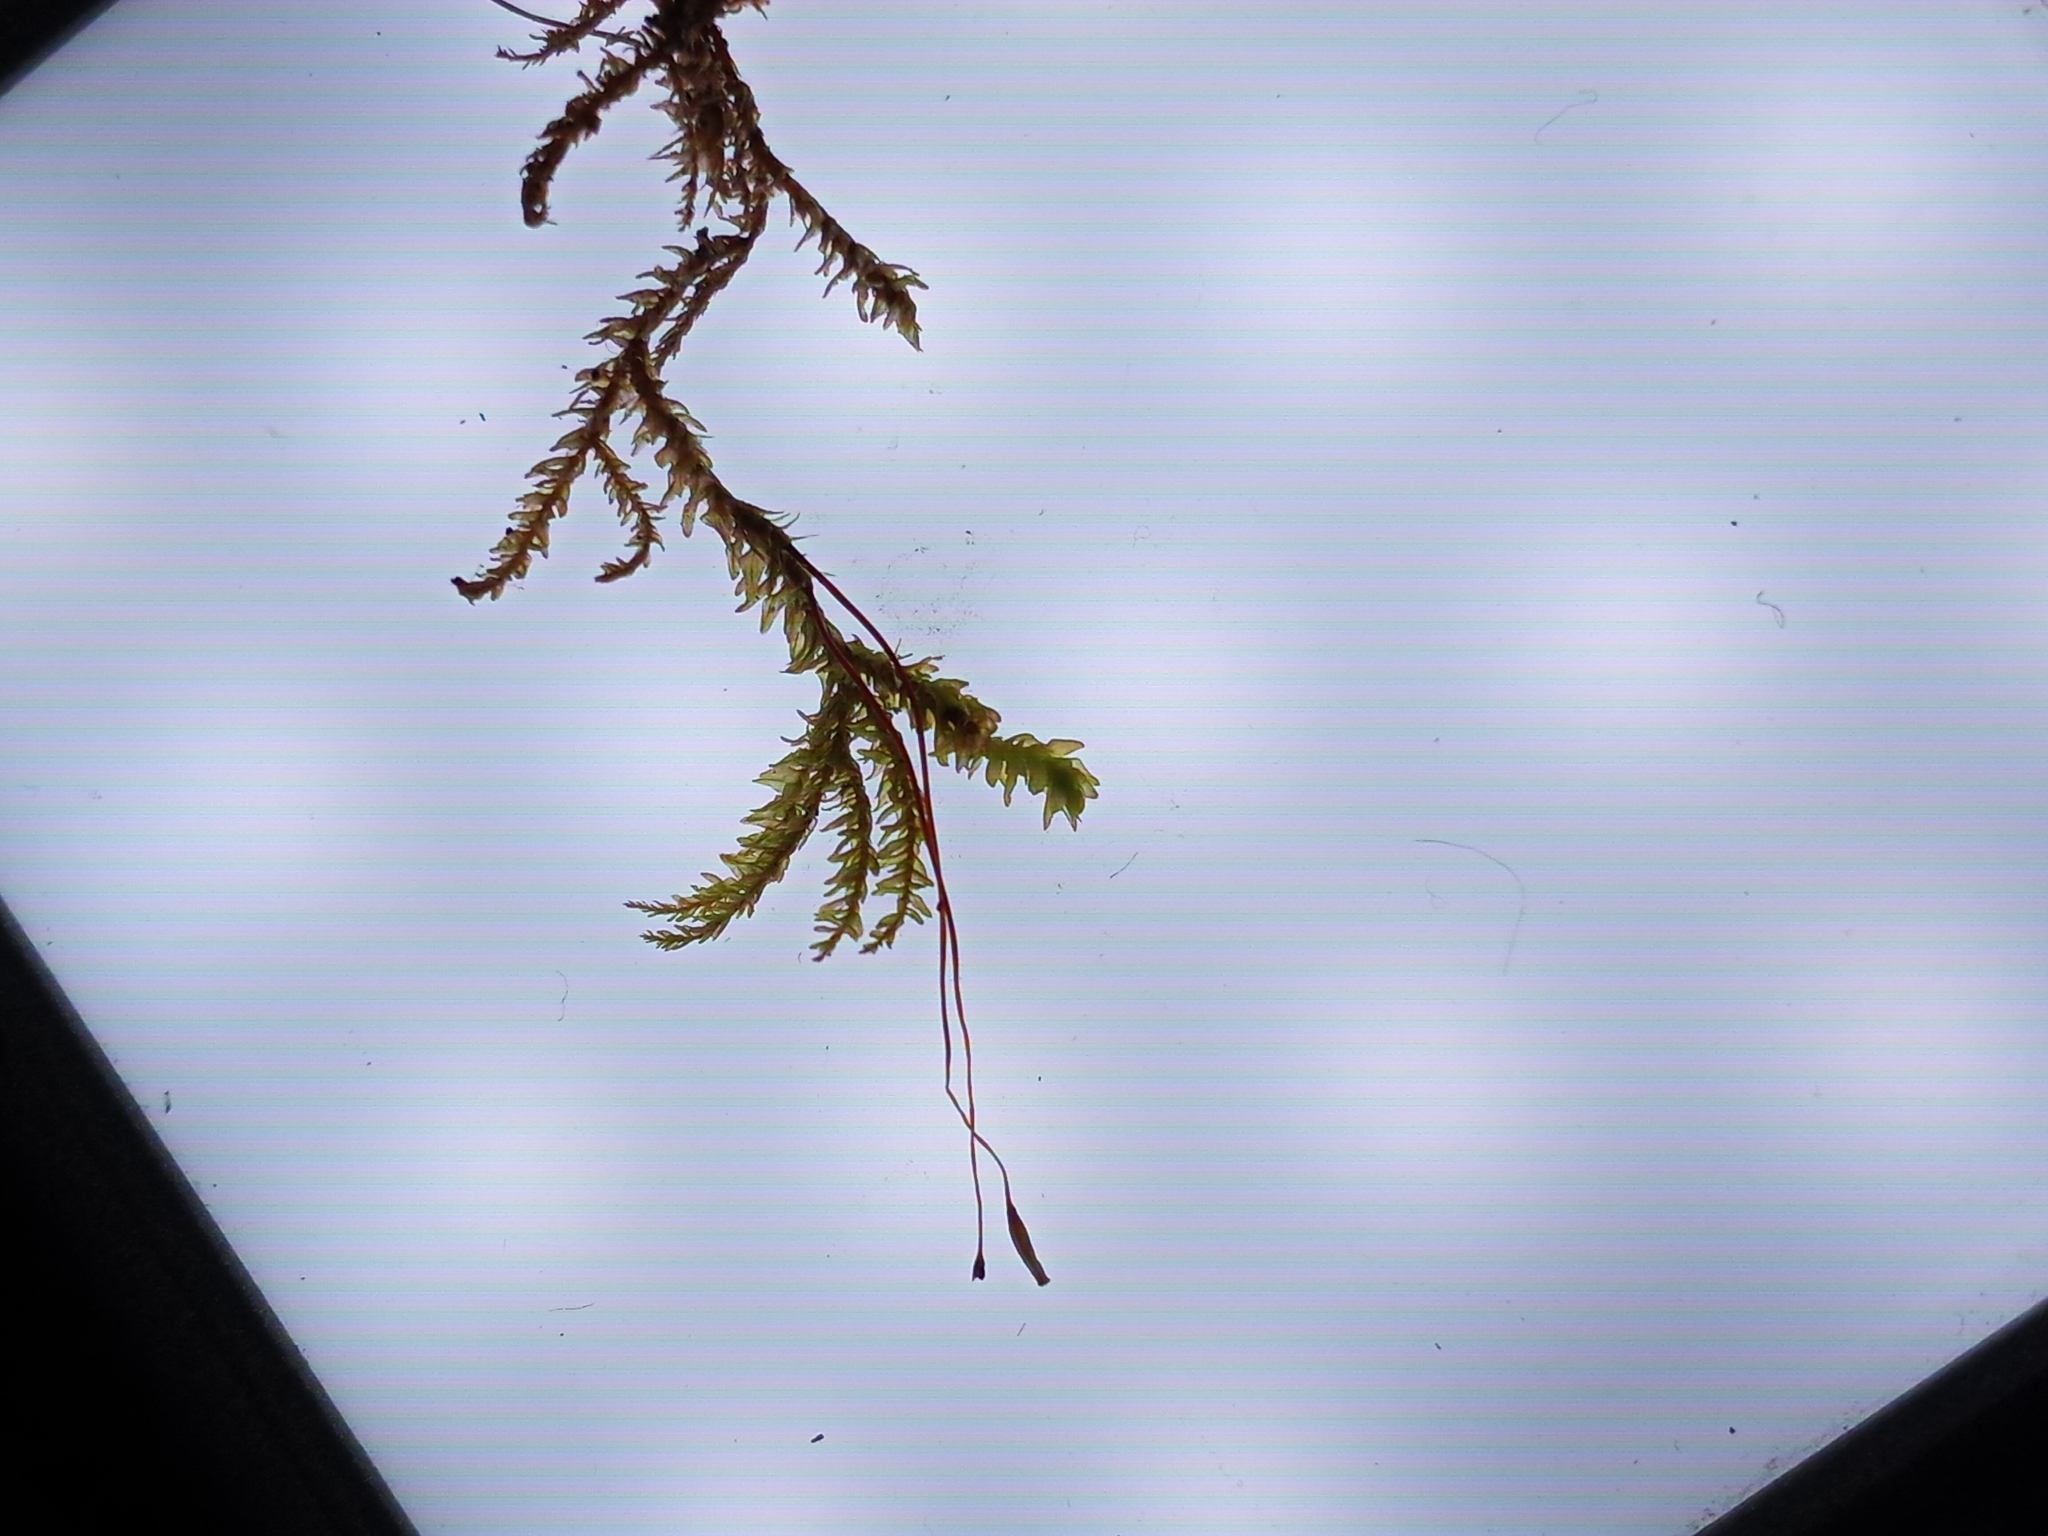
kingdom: Plantae
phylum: Bryophyta
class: Bryopsida
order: Hypnales
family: Neckeraceae
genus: Pseudanomodon
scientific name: Pseudanomodon attenuatus
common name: Tree-skirt moss
